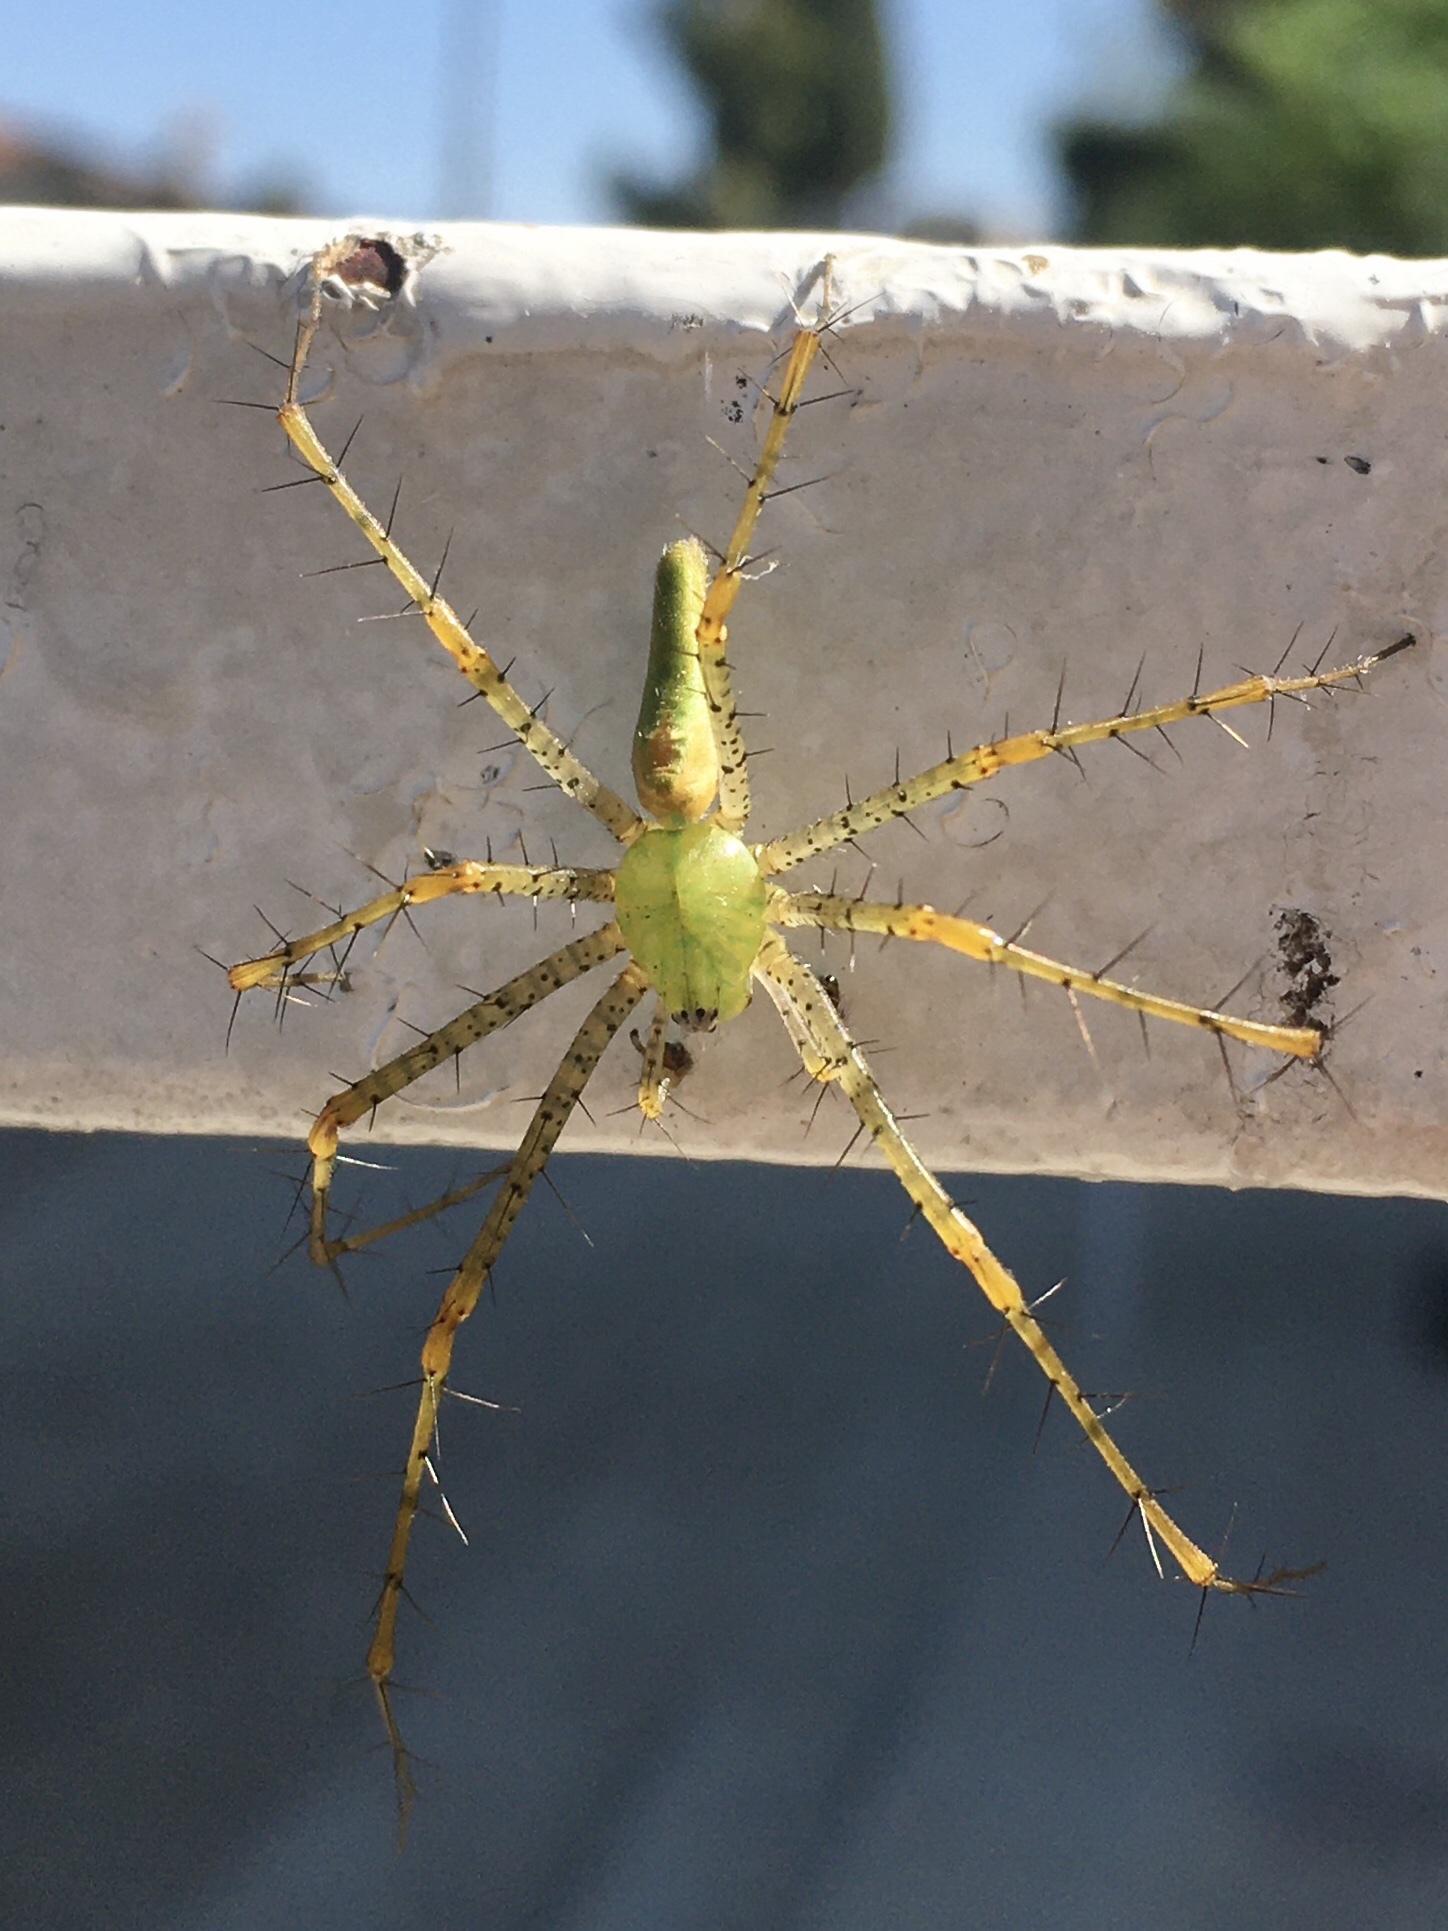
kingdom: Animalia
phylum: Arthropoda
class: Arachnida
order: Araneae
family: Oxyopidae
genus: Peucetia
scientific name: Peucetia viridans
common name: Lynx spiders
